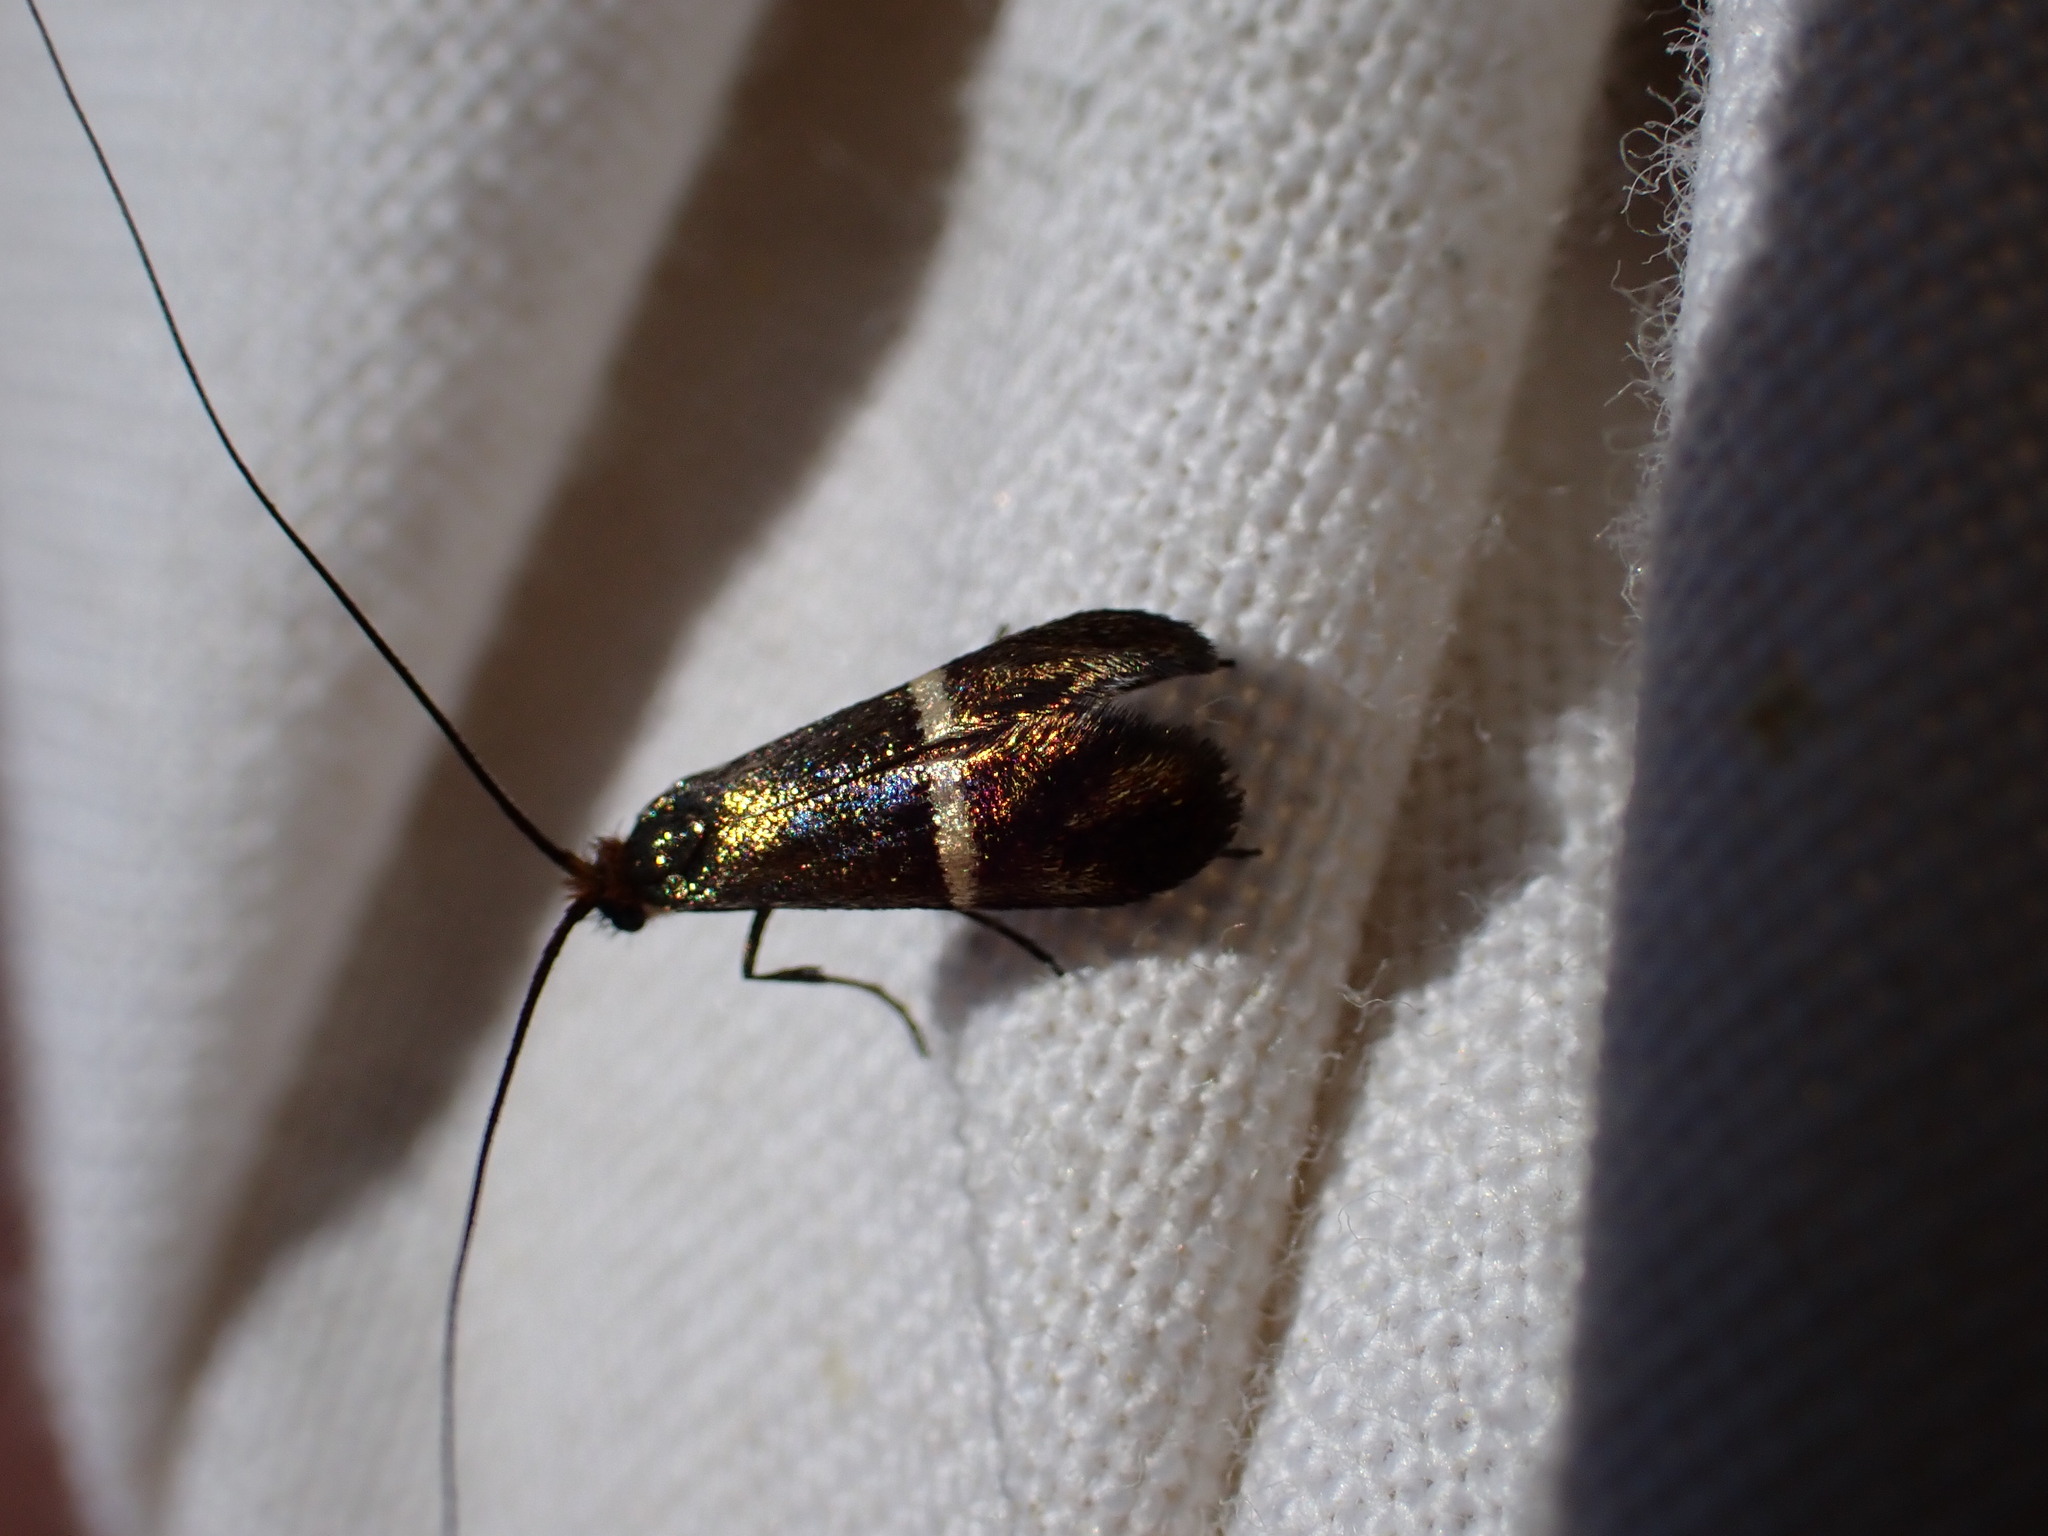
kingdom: Animalia
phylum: Arthropoda
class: Insecta
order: Lepidoptera
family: Adelidae
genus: Adela
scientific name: Adela australis
